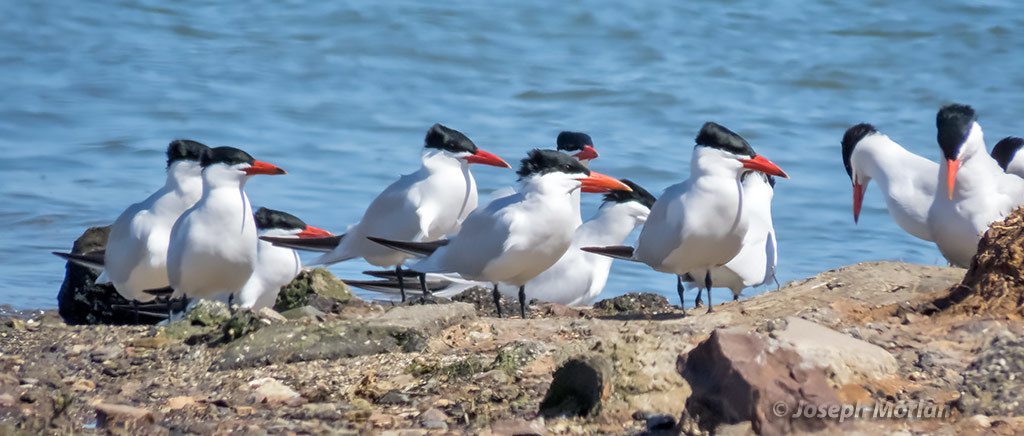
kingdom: Animalia
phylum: Chordata
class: Aves
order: Charadriiformes
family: Laridae
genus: Hydroprogne
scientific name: Hydroprogne caspia
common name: Caspian tern
